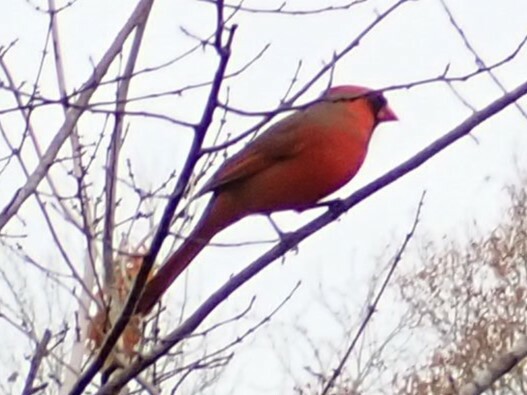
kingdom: Animalia
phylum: Chordata
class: Aves
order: Passeriformes
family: Cardinalidae
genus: Cardinalis
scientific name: Cardinalis cardinalis
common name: Northern cardinal
